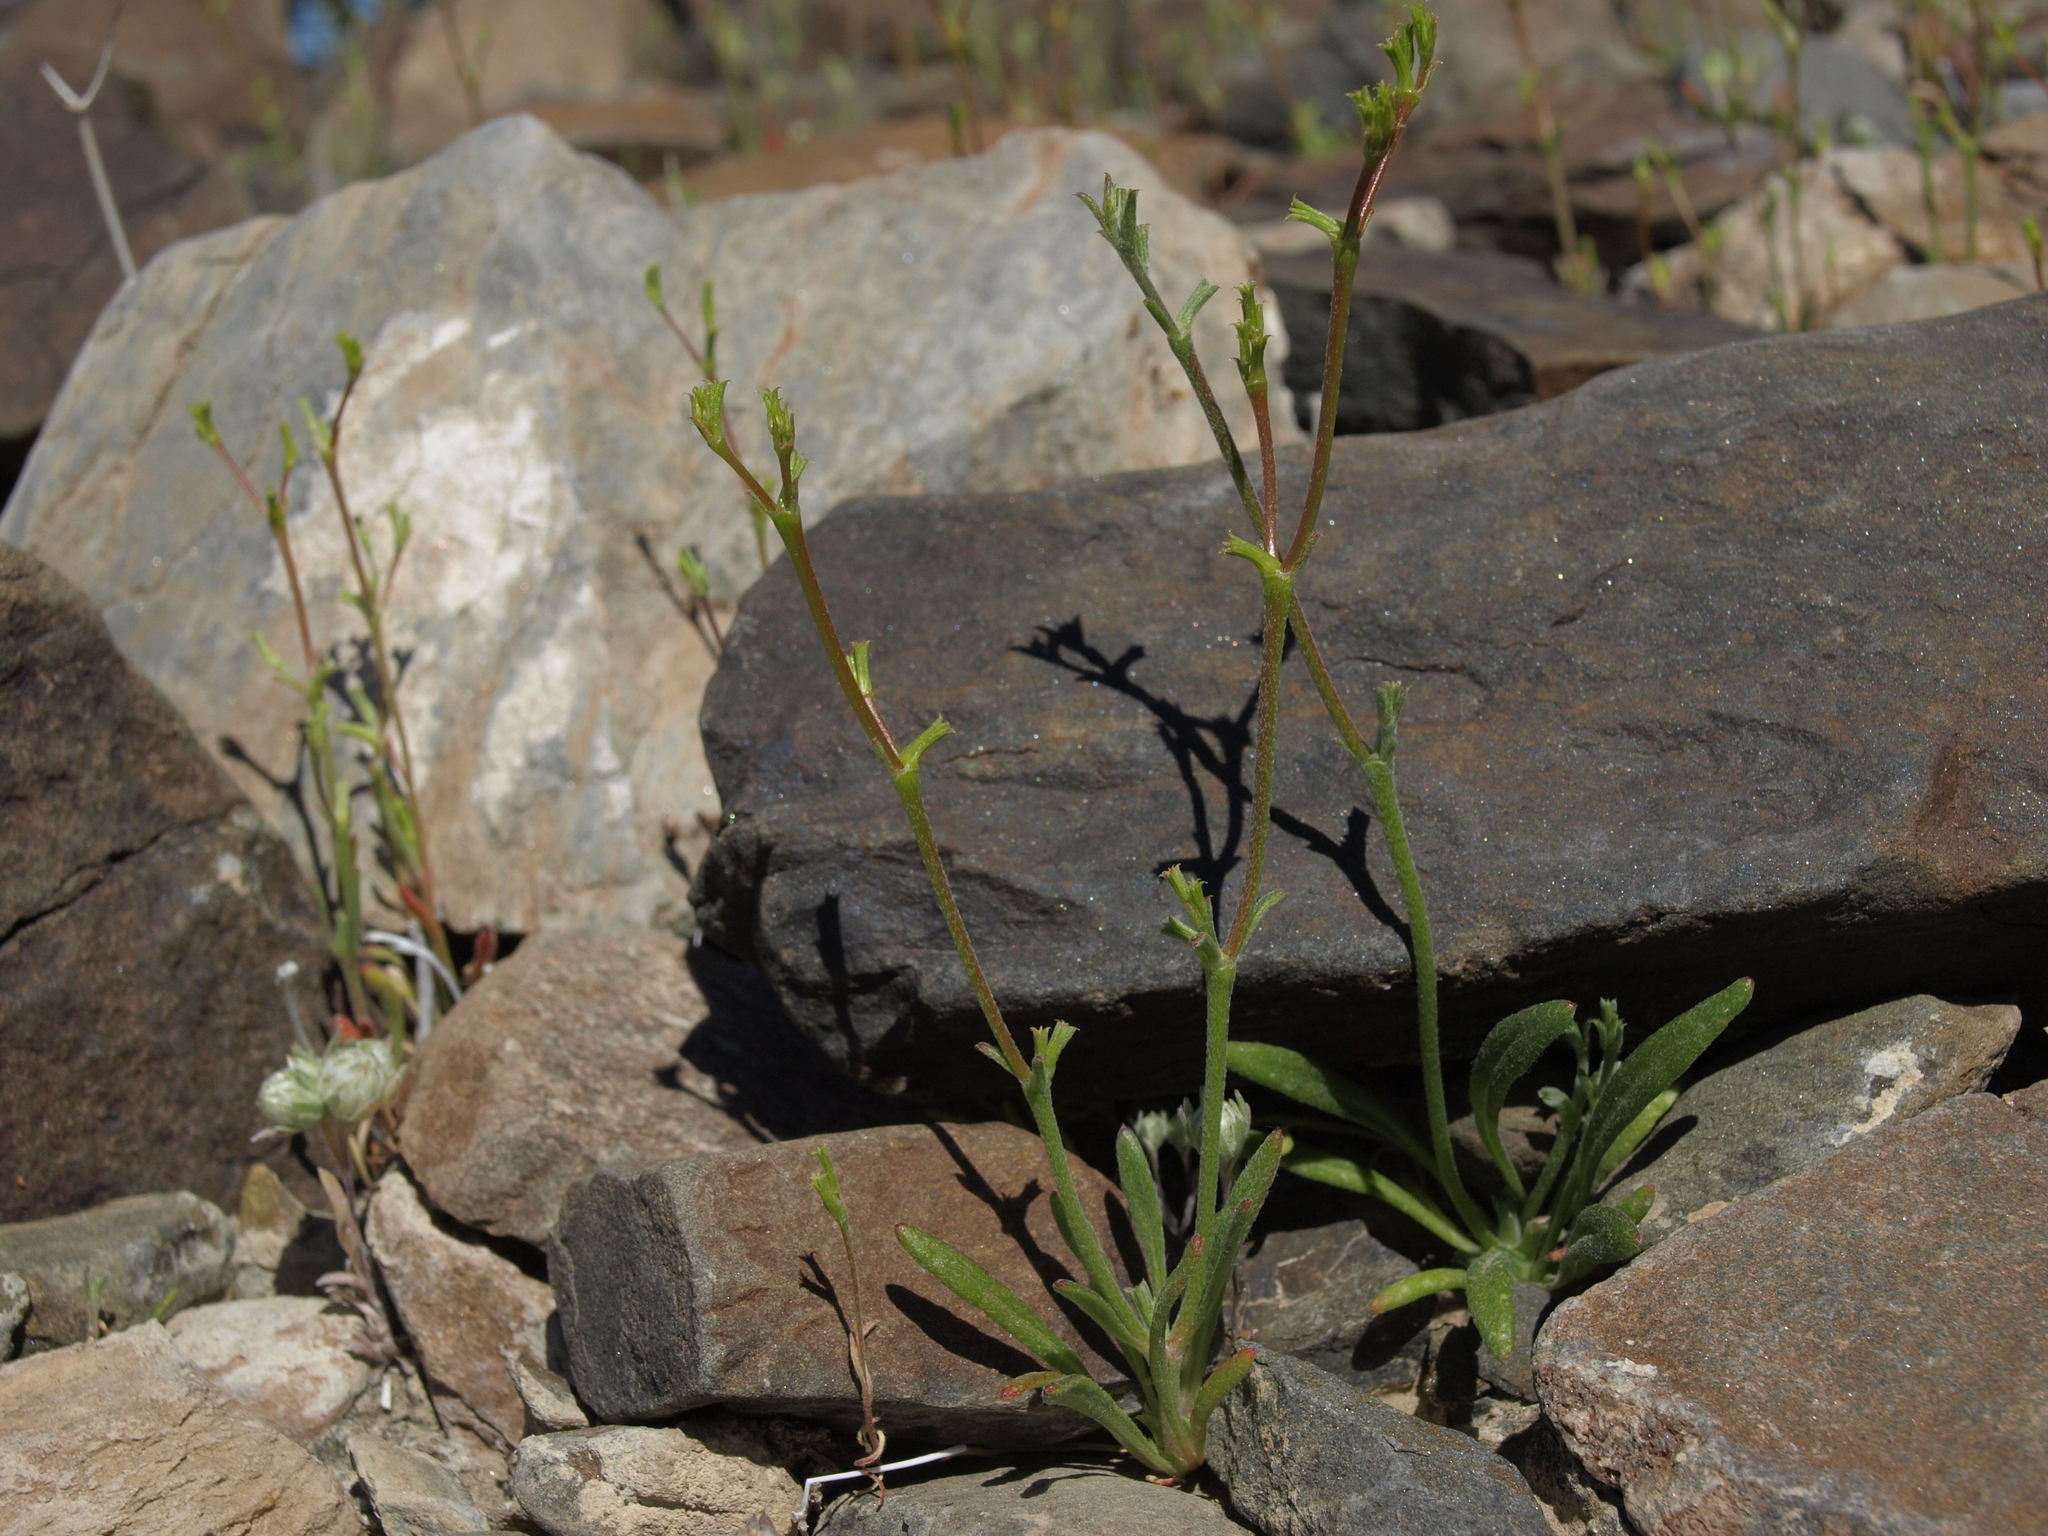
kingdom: Plantae
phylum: Tracheophyta
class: Magnoliopsida
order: Caryophyllales
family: Polygonaceae
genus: Chorizanthe
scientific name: Chorizanthe brevicornu
